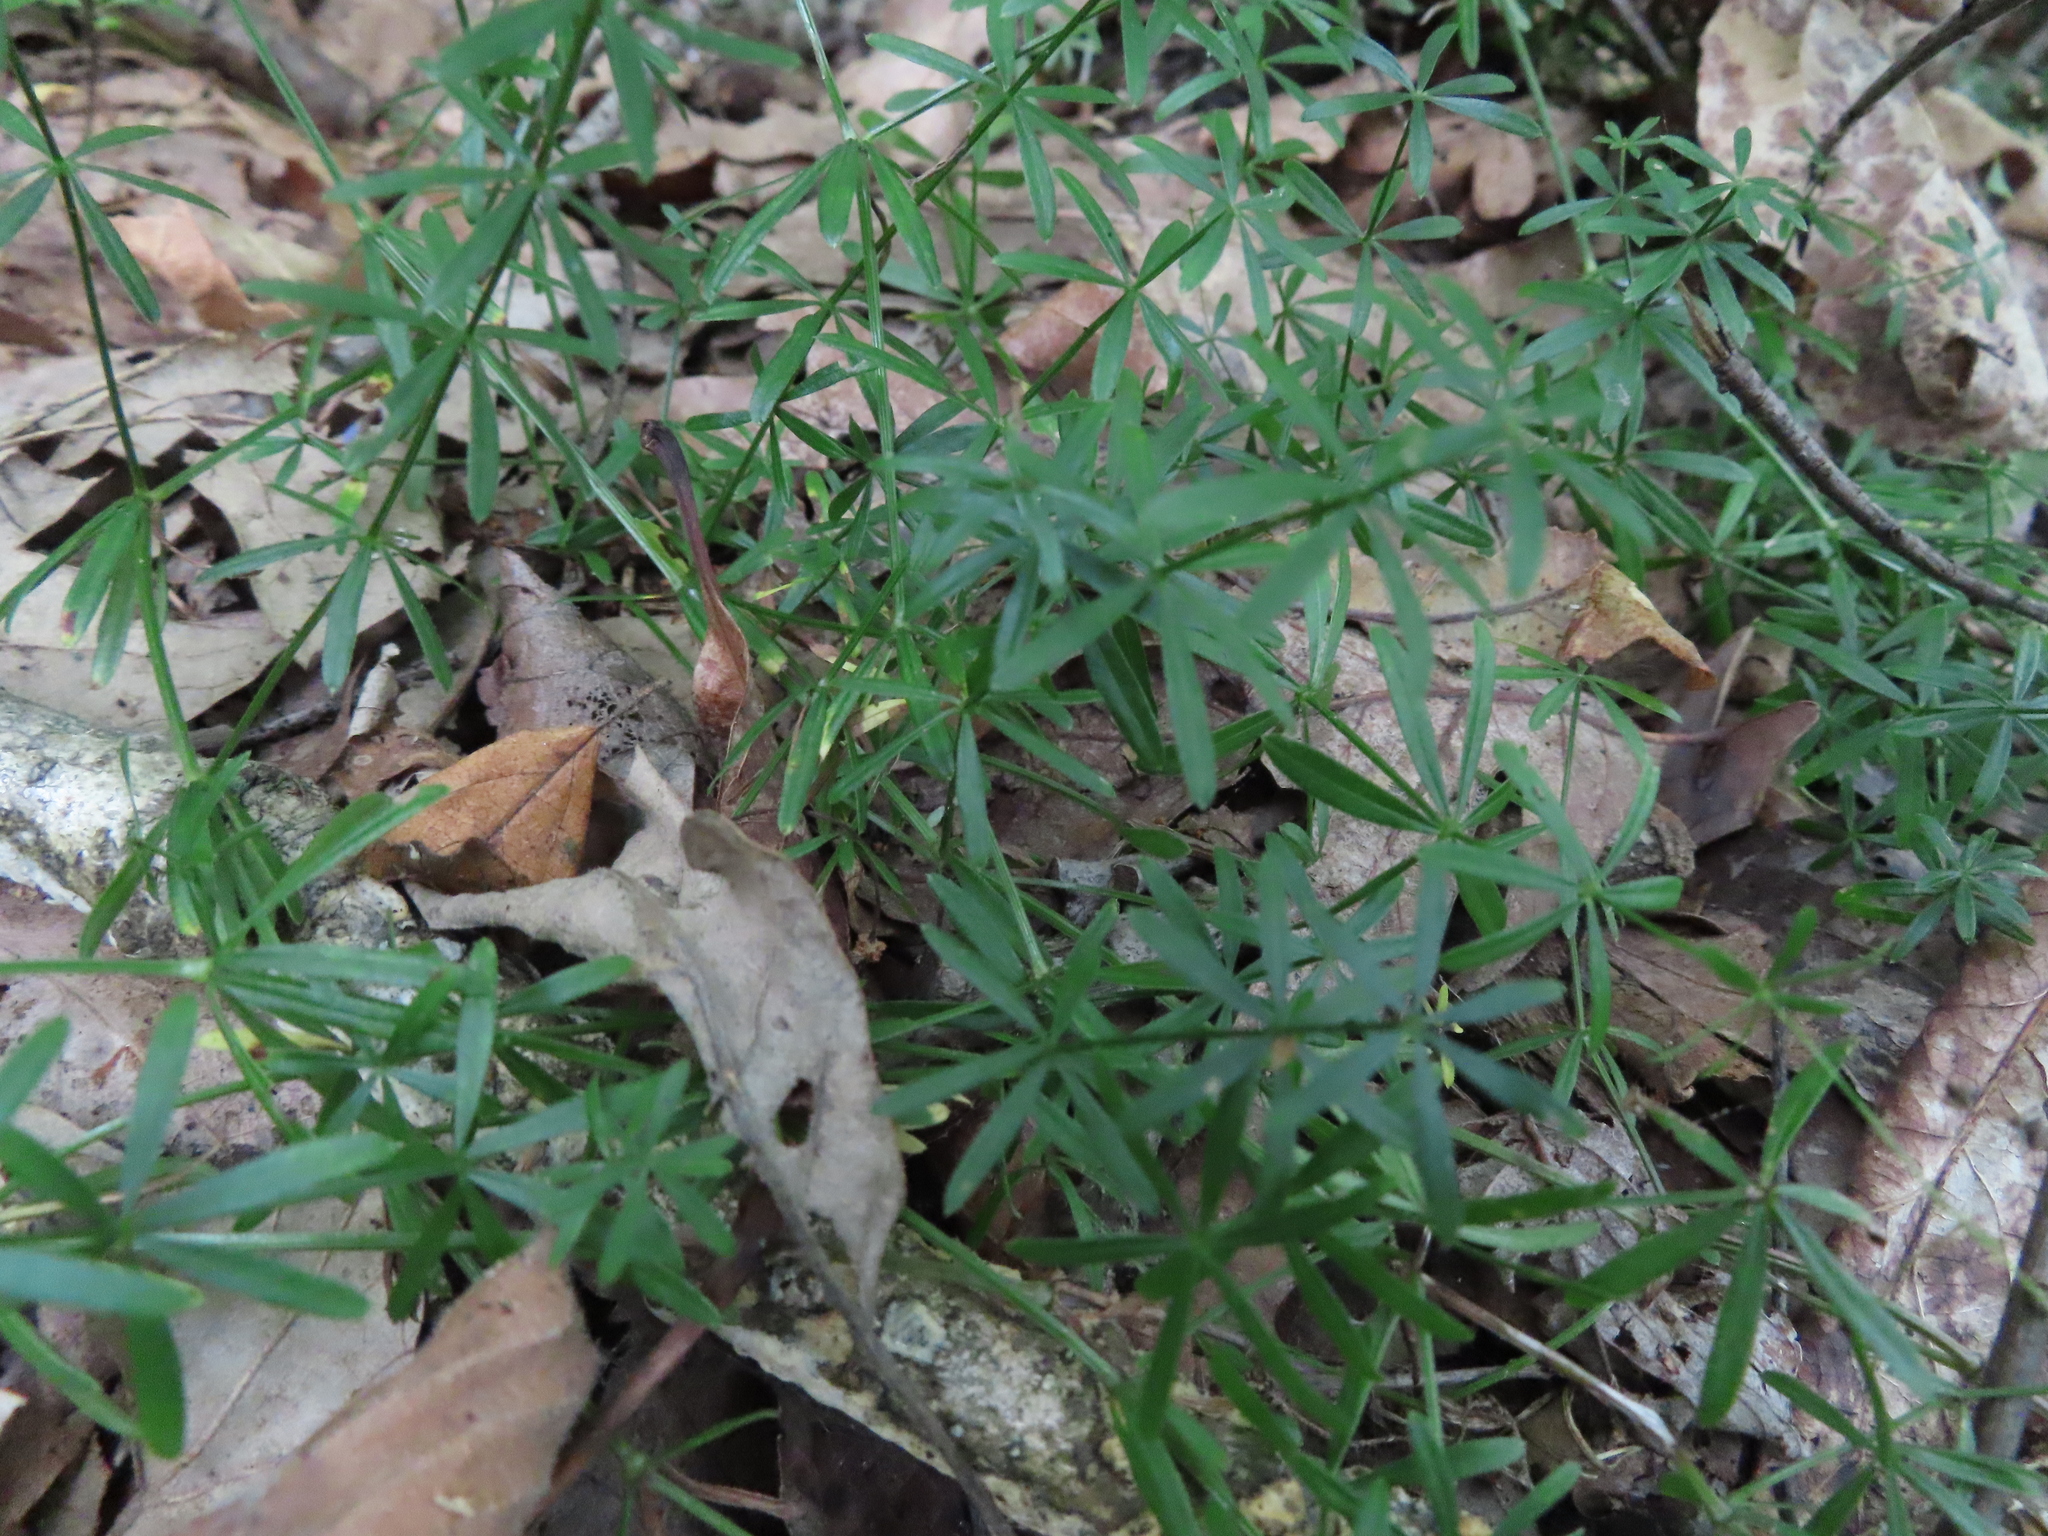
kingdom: Plantae
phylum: Tracheophyta
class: Magnoliopsida
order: Gentianales
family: Rubiaceae
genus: Galium
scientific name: Galium concinnum
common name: Shining bedstraw
